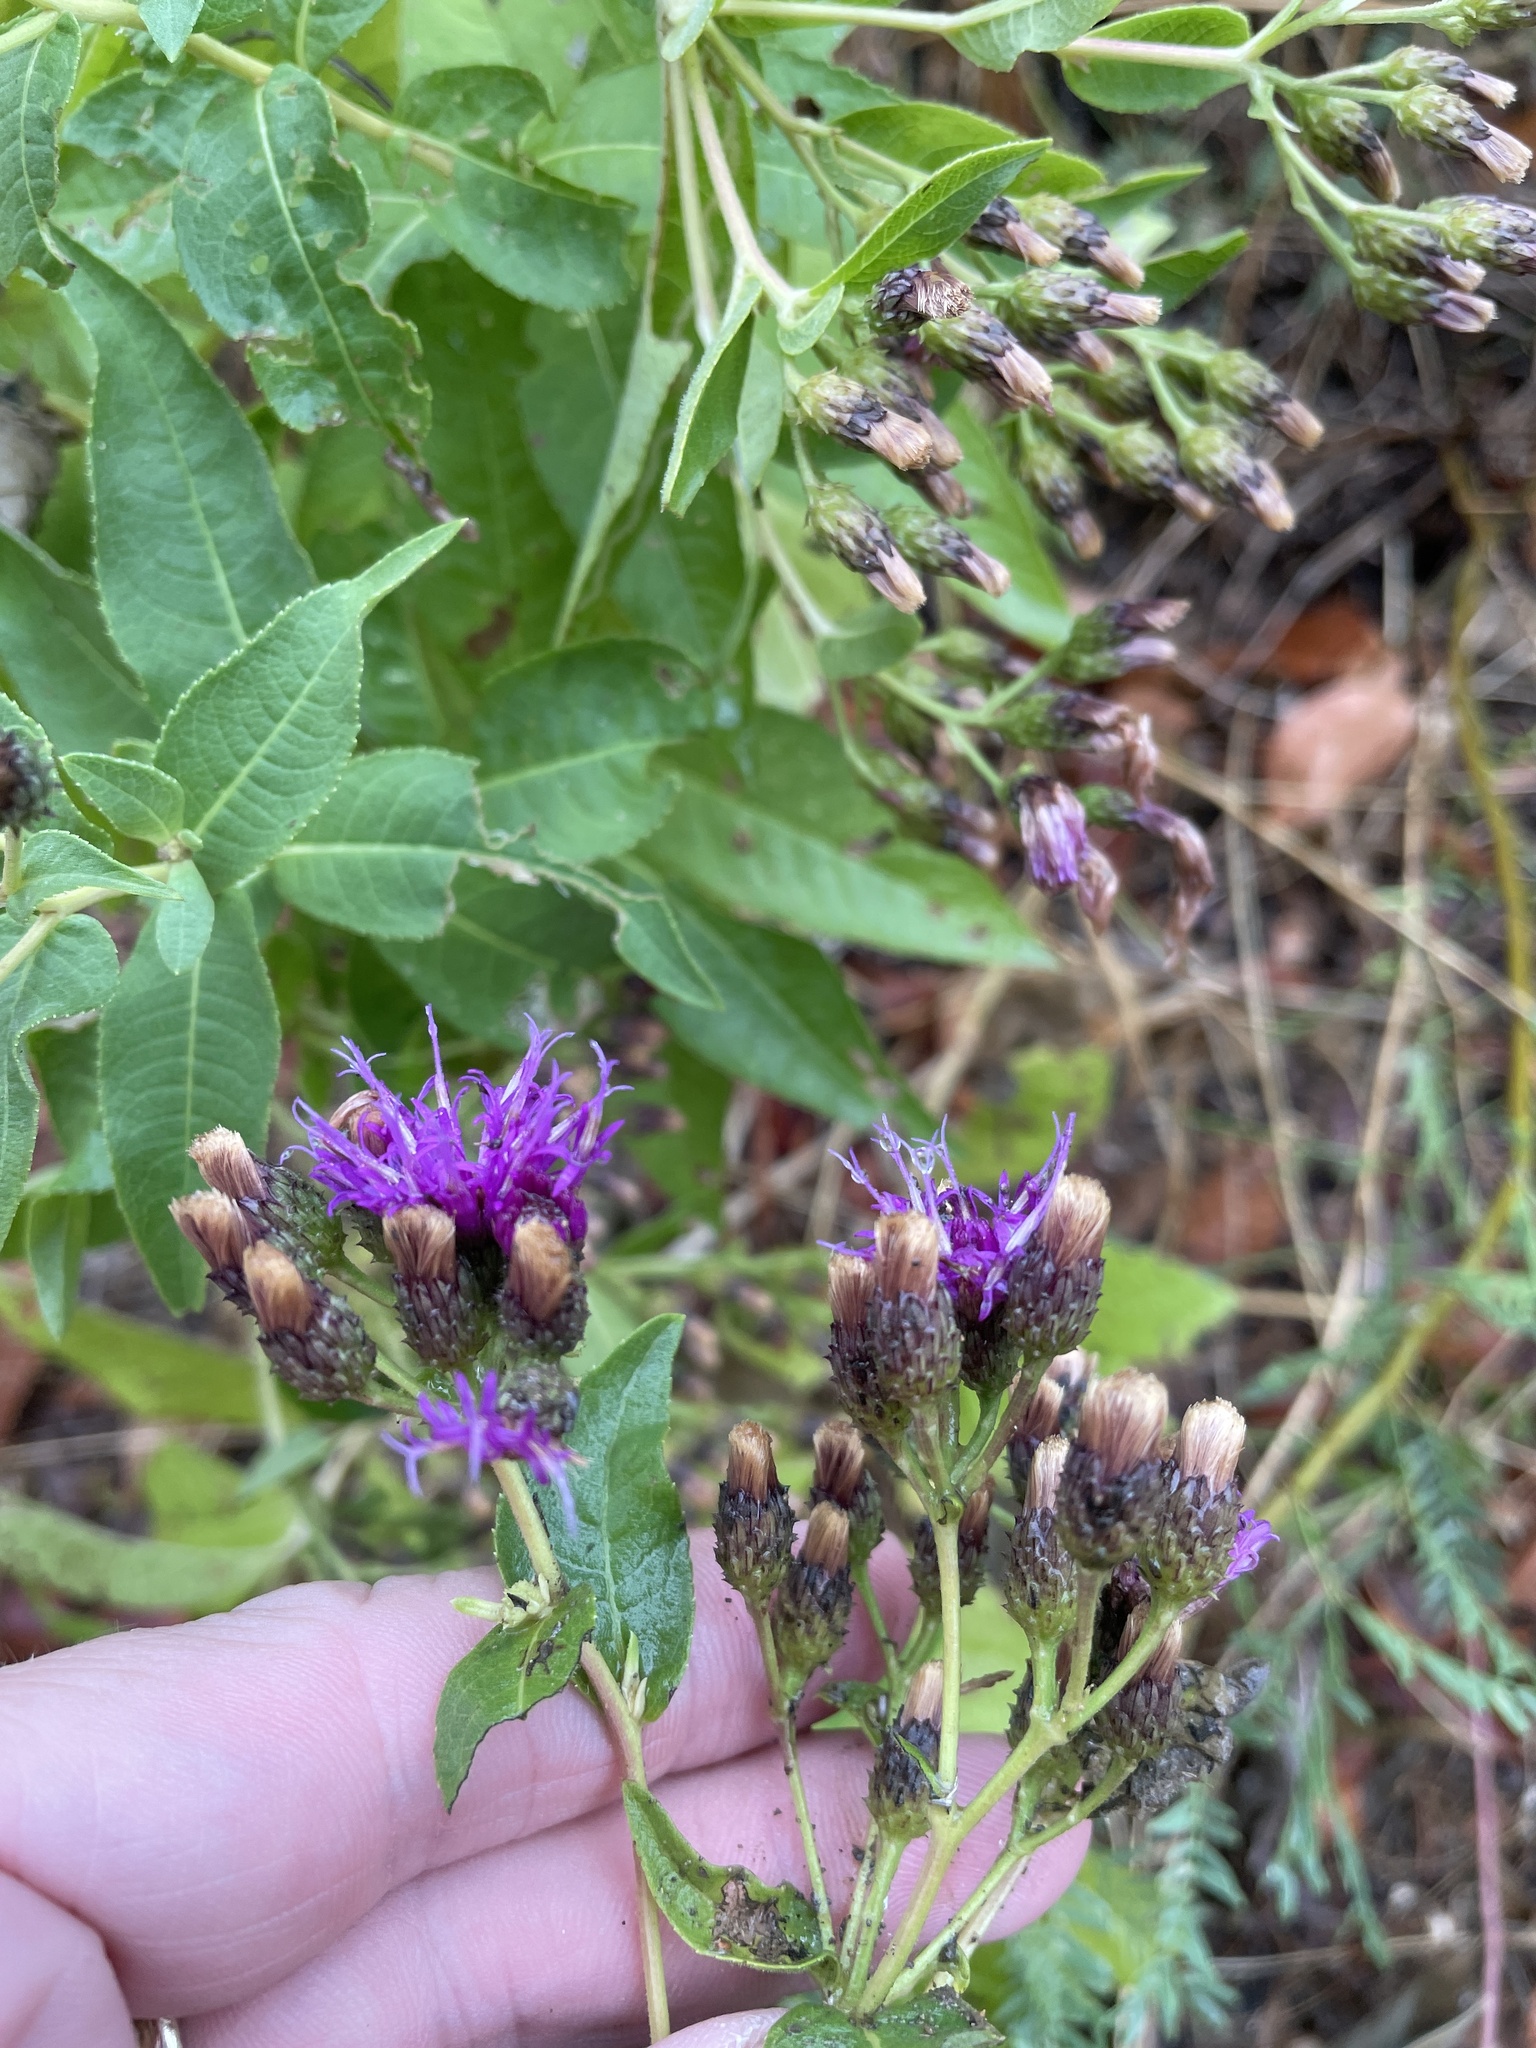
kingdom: Plantae
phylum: Tracheophyta
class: Magnoliopsida
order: Asterales
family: Asteraceae
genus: Vernonia
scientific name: Vernonia baldwinii
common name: Western ironweed
